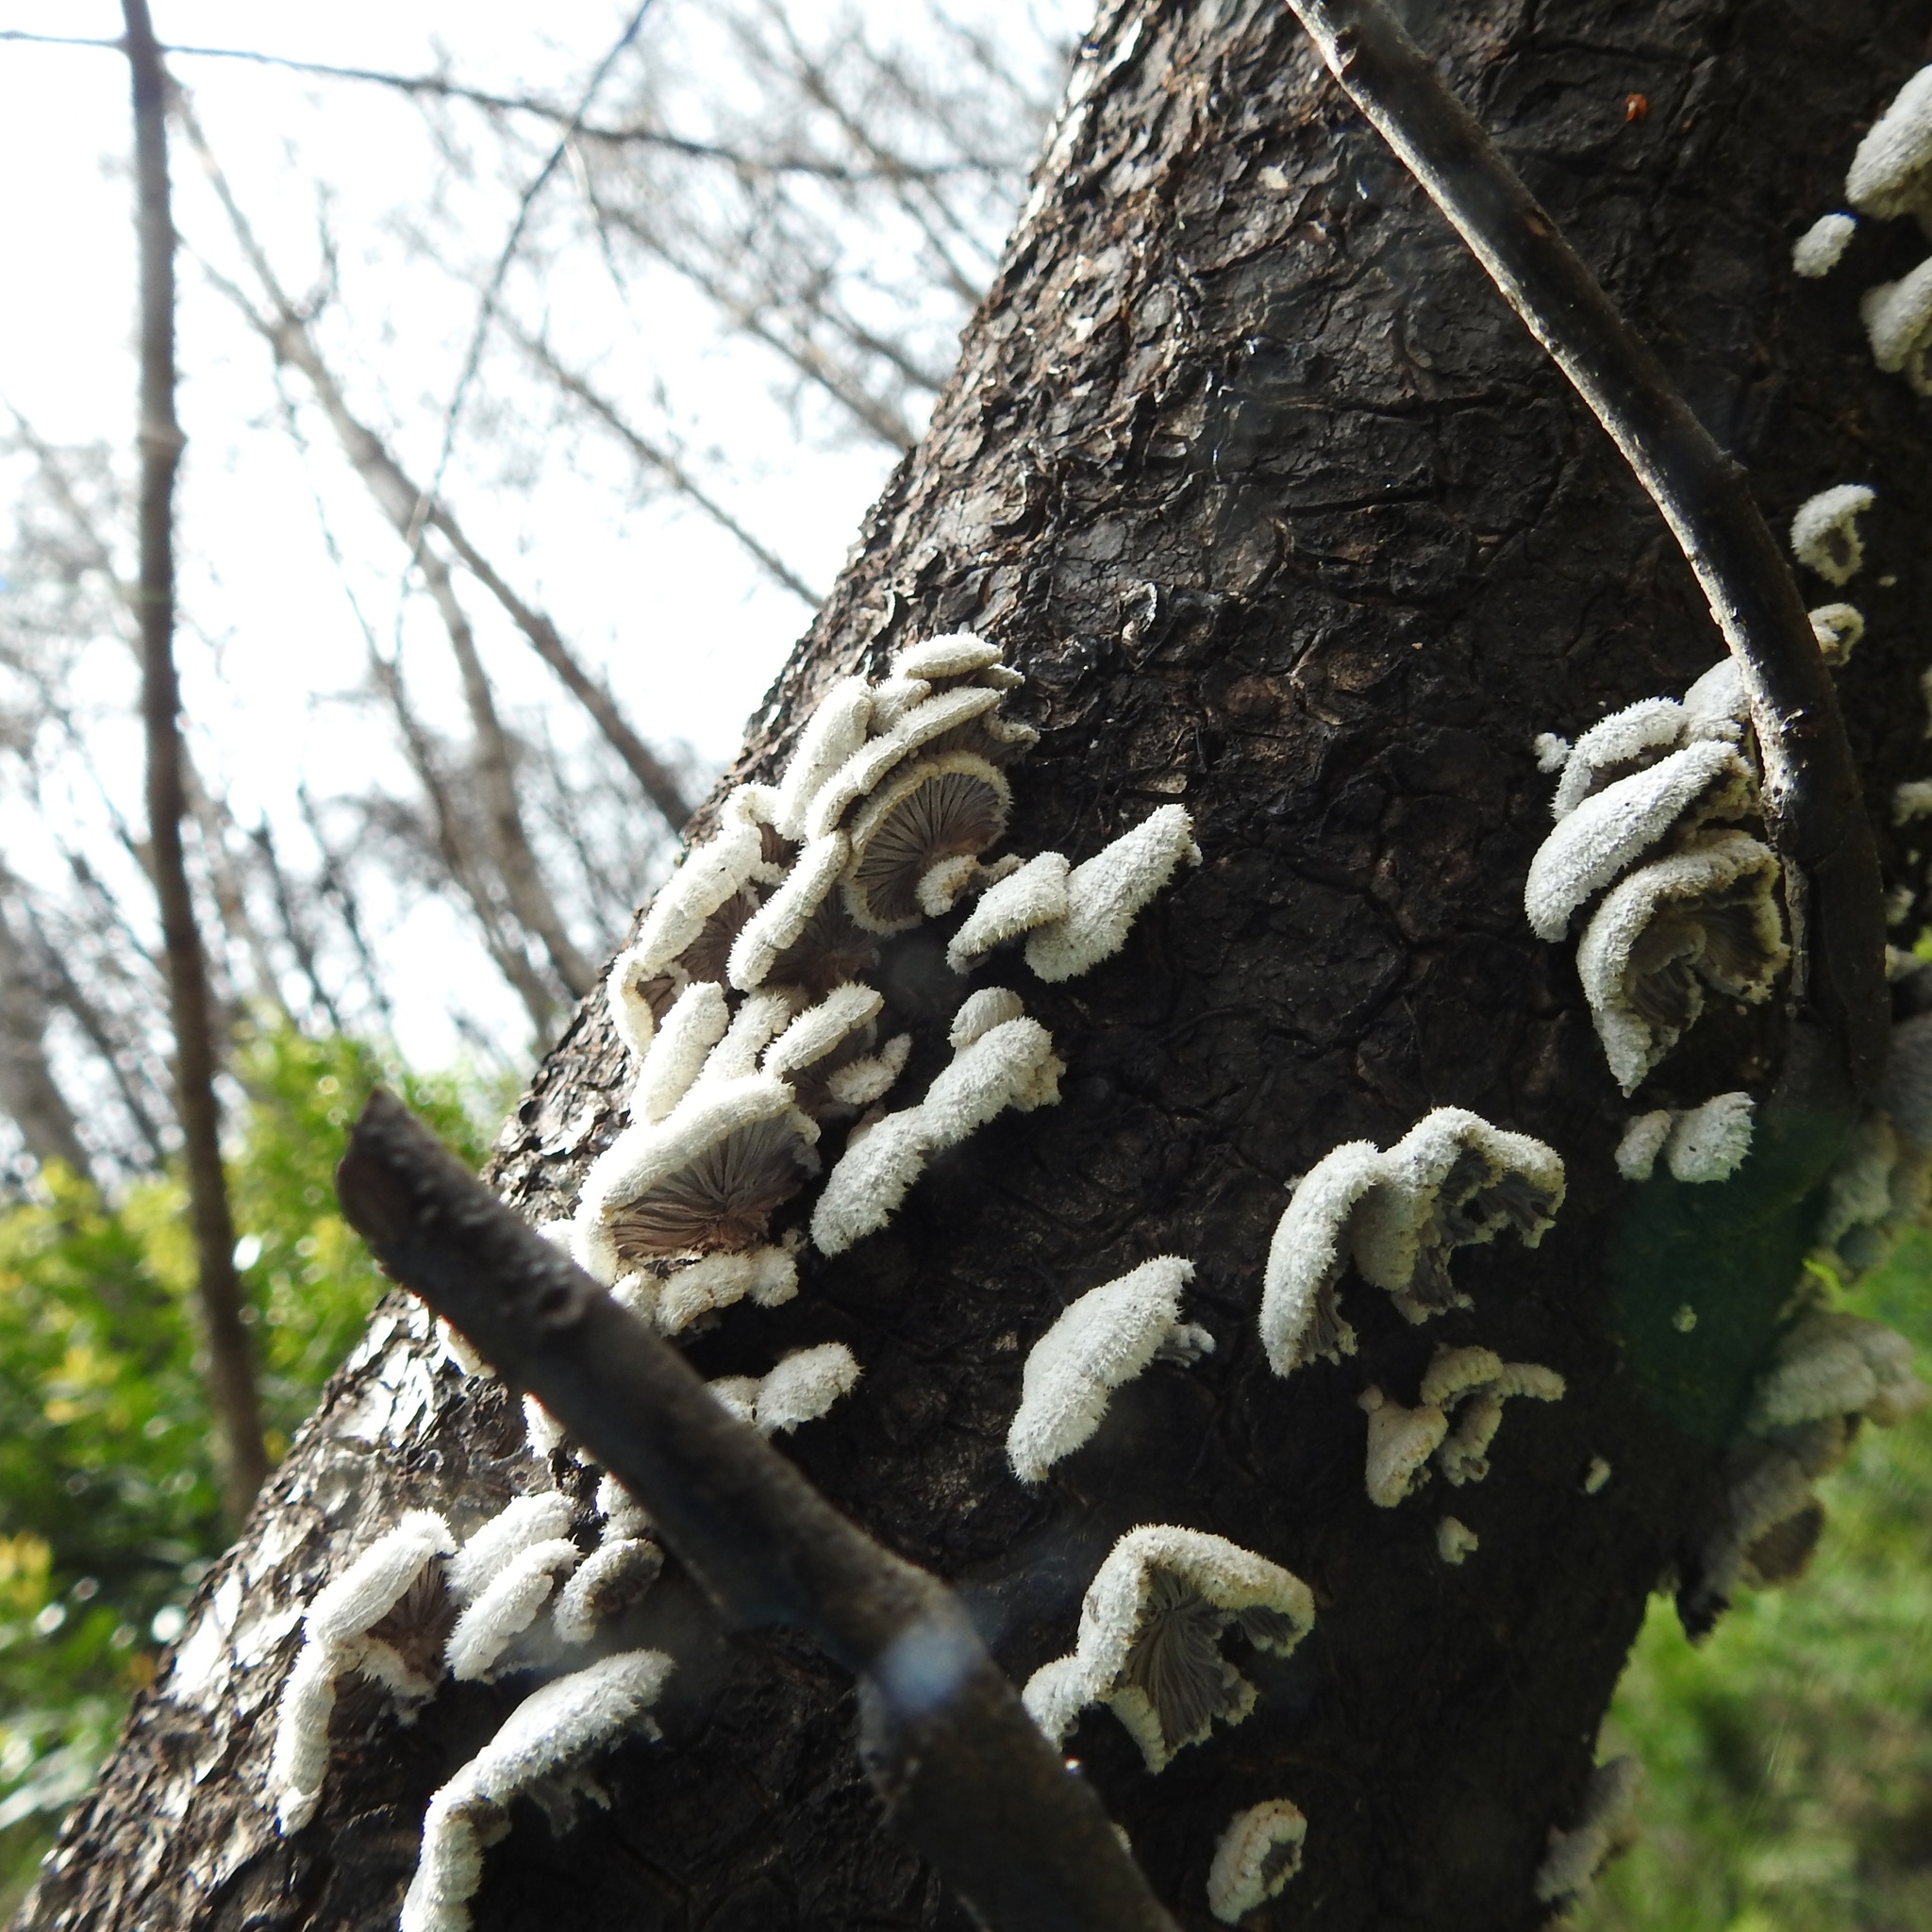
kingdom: Fungi
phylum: Basidiomycota
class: Agaricomycetes
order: Agaricales
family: Schizophyllaceae
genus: Schizophyllum
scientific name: Schizophyllum commune
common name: Common porecrust
